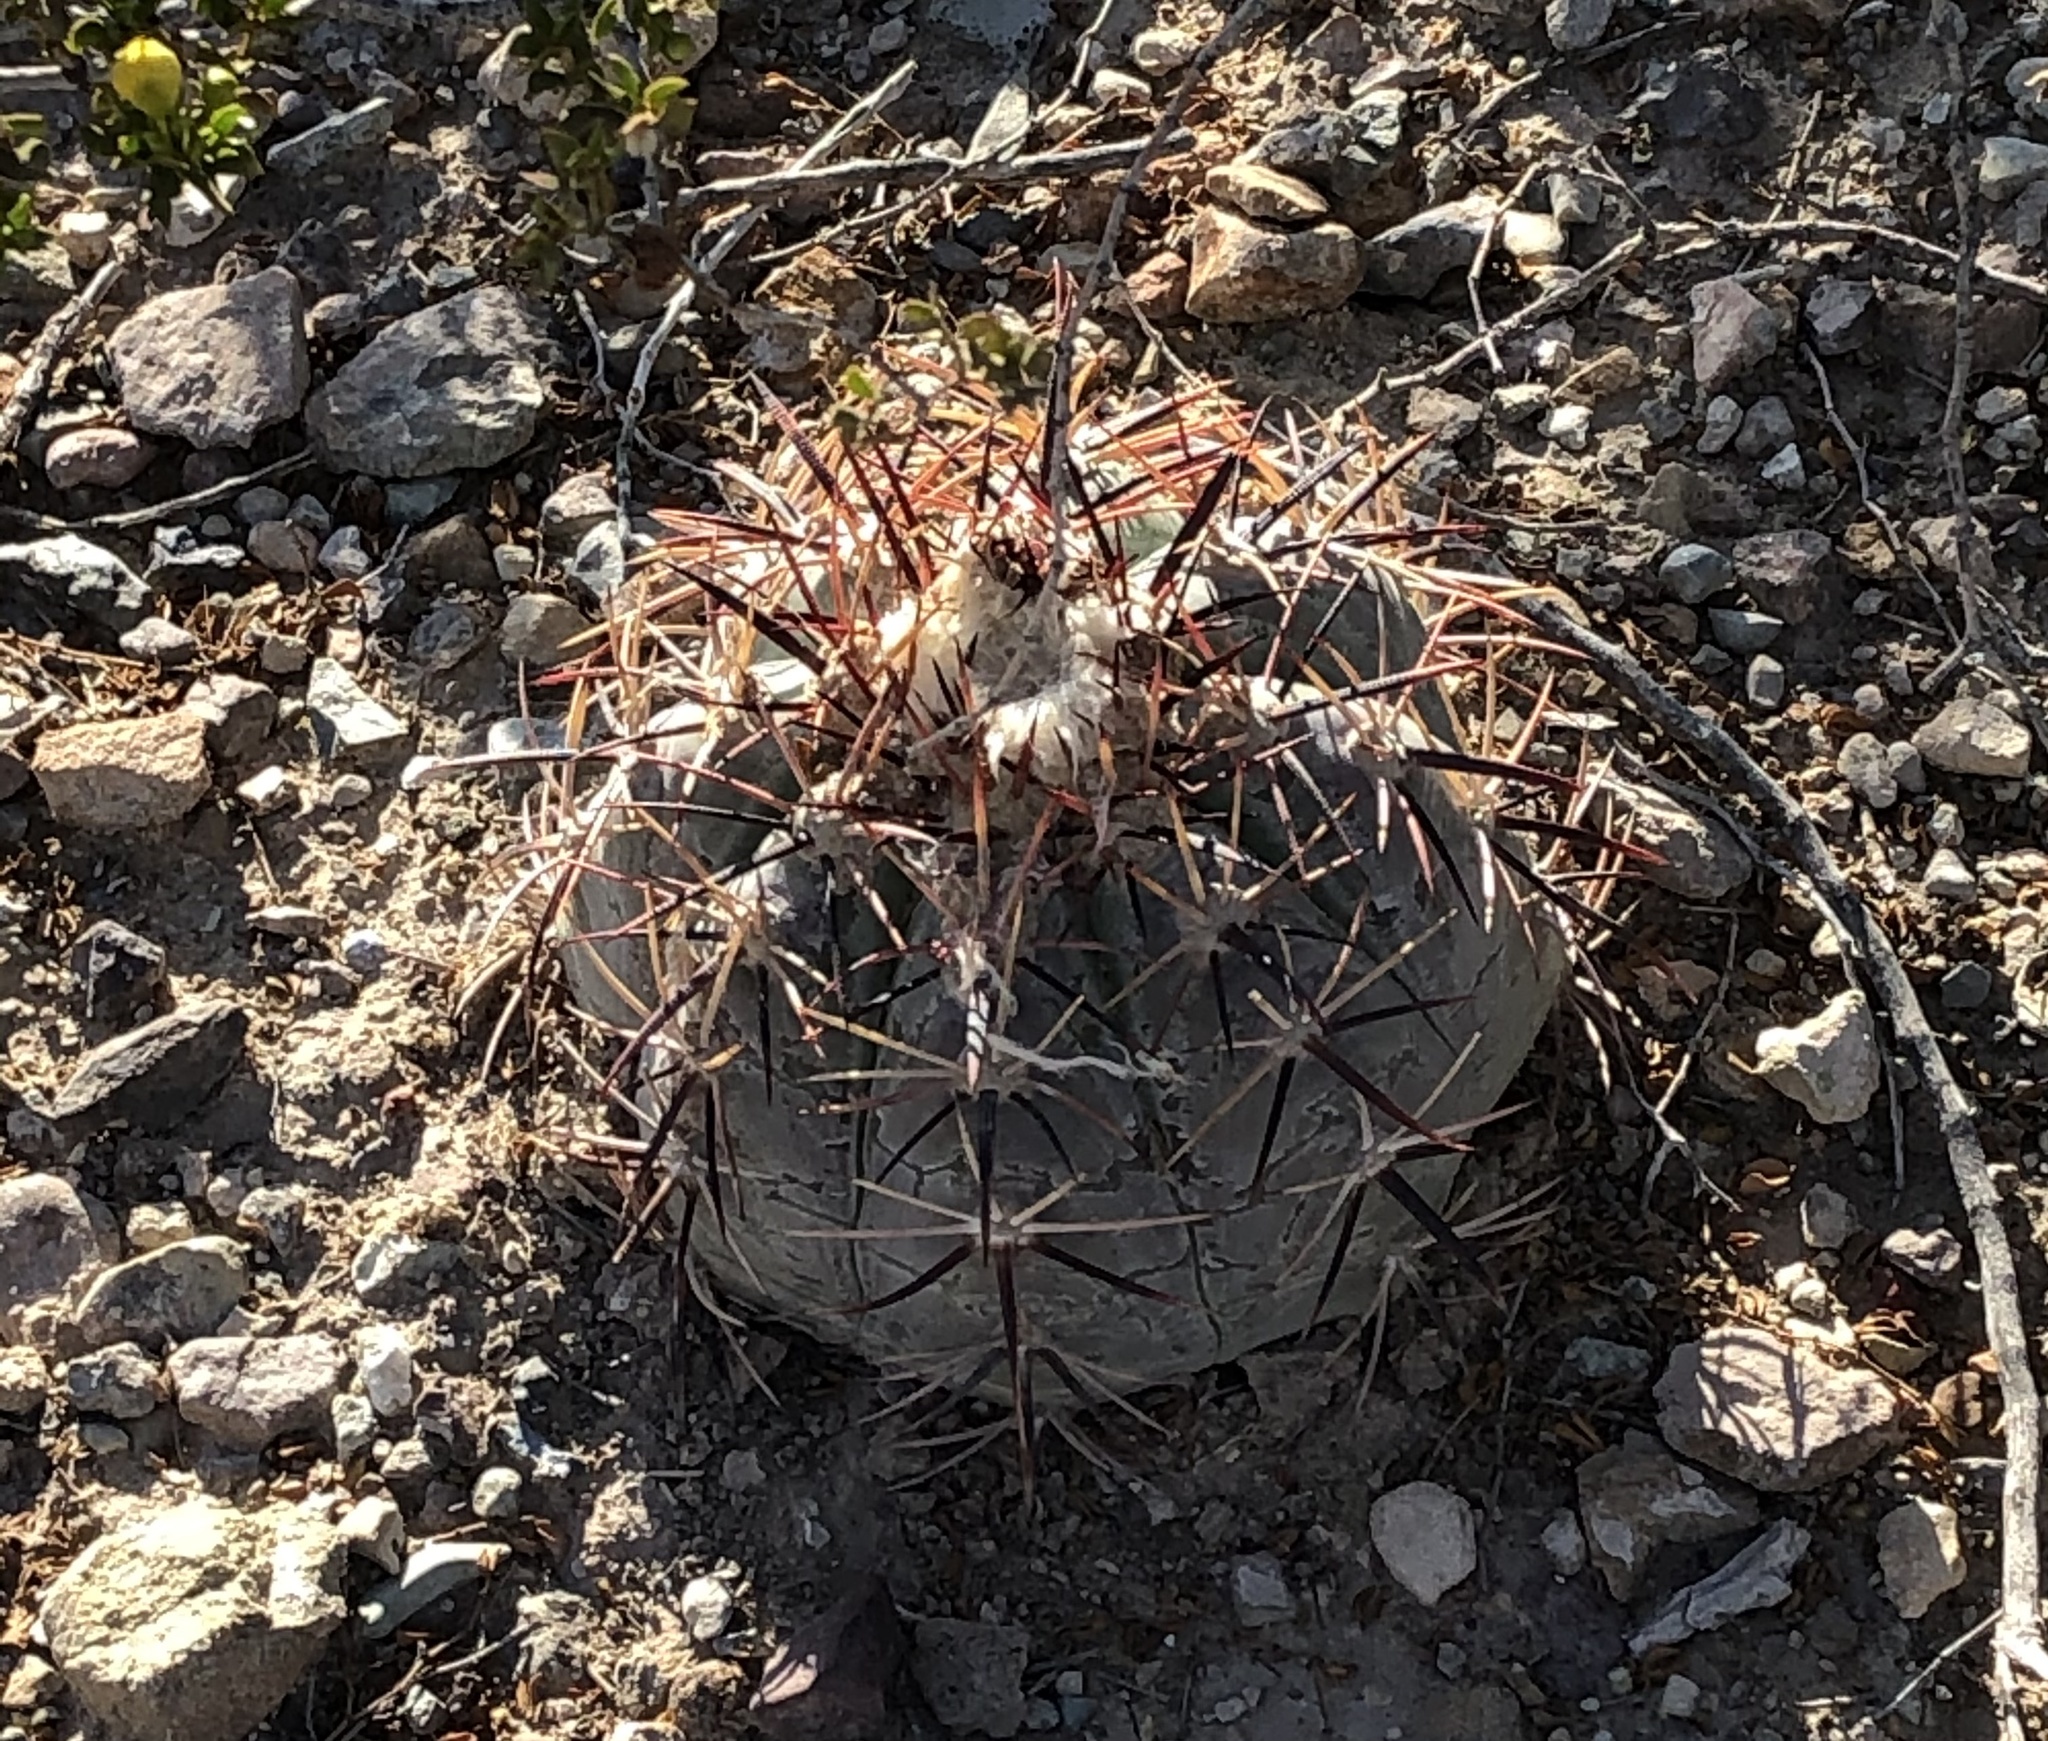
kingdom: Plantae
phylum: Tracheophyta
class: Magnoliopsida
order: Caryophyllales
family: Cactaceae
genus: Echinocactus
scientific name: Echinocactus horizonthalonius
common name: Devilshead
